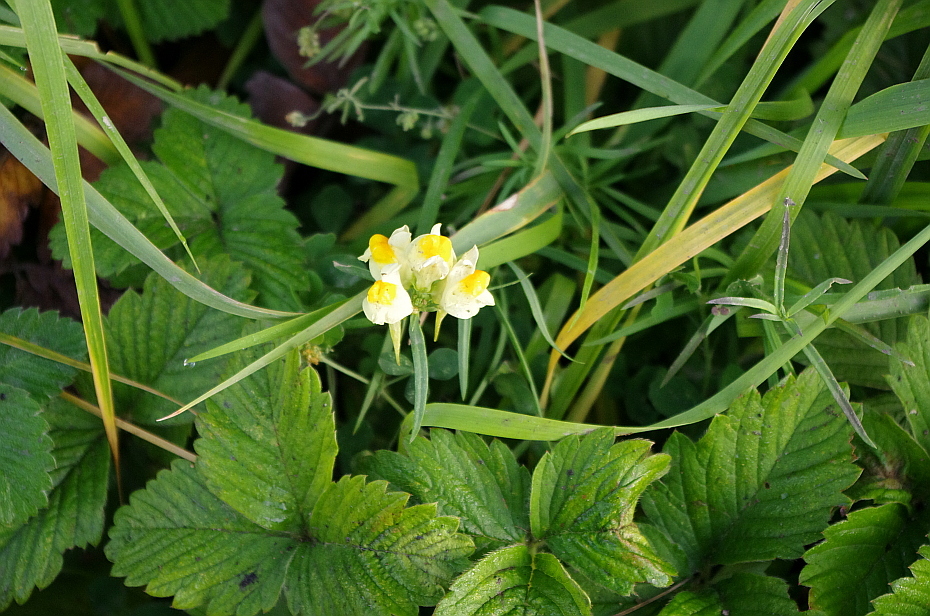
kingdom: Plantae
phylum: Tracheophyta
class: Magnoliopsida
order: Lamiales
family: Plantaginaceae
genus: Linaria
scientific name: Linaria vulgaris
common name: Butter and eggs
